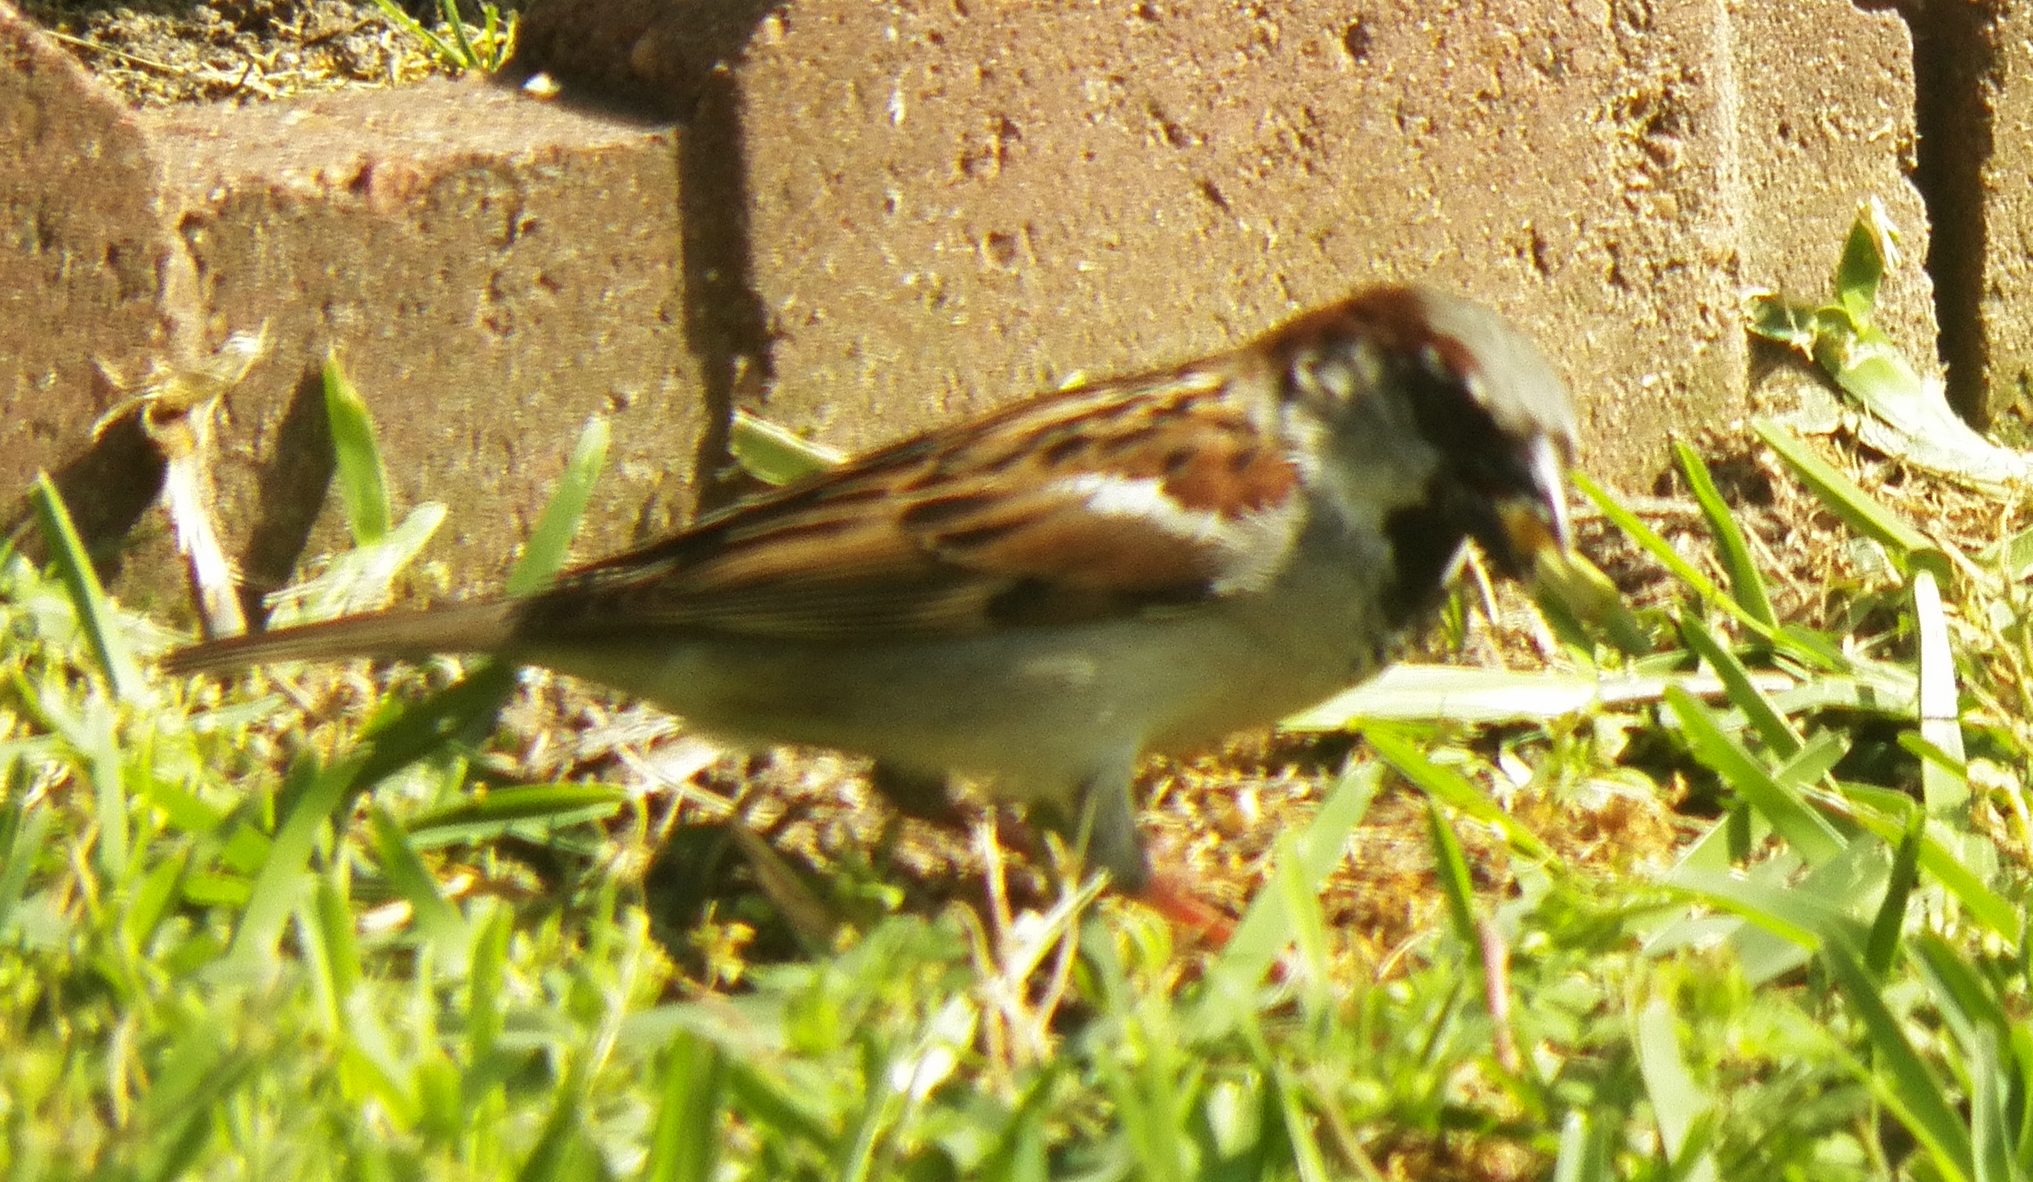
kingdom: Animalia
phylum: Chordata
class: Aves
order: Passeriformes
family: Passeridae
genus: Passer
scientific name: Passer domesticus
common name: House sparrow
